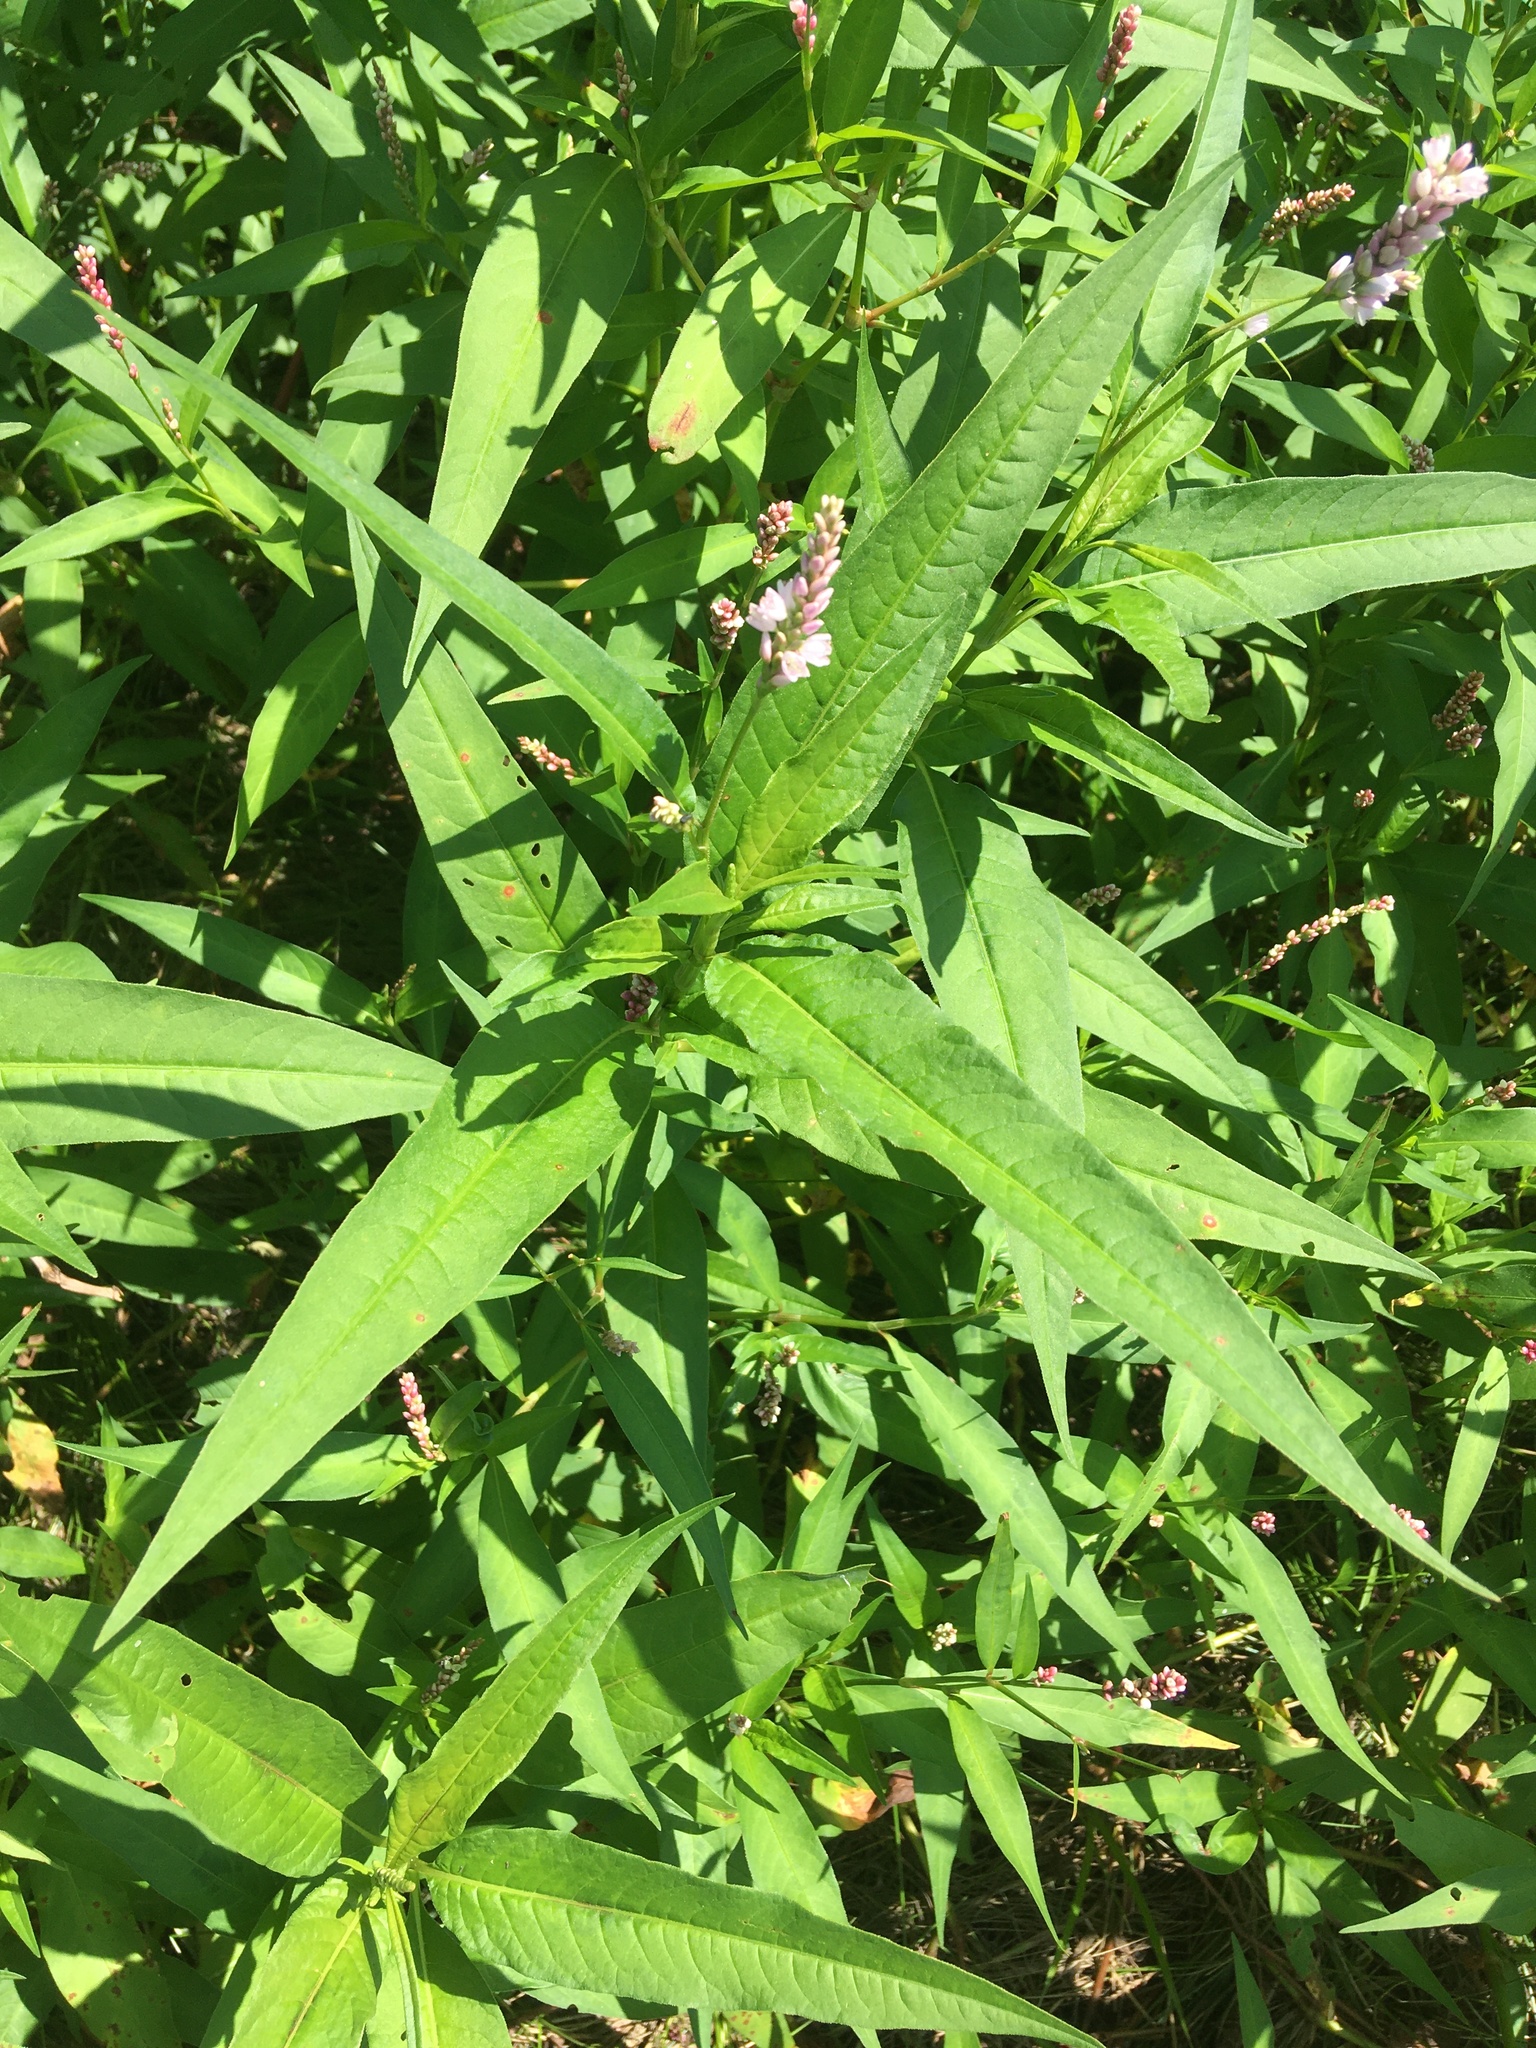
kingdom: Plantae
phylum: Tracheophyta
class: Magnoliopsida
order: Caryophyllales
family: Polygonaceae
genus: Persicaria
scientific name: Persicaria pensylvanica
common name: Pinkweed
